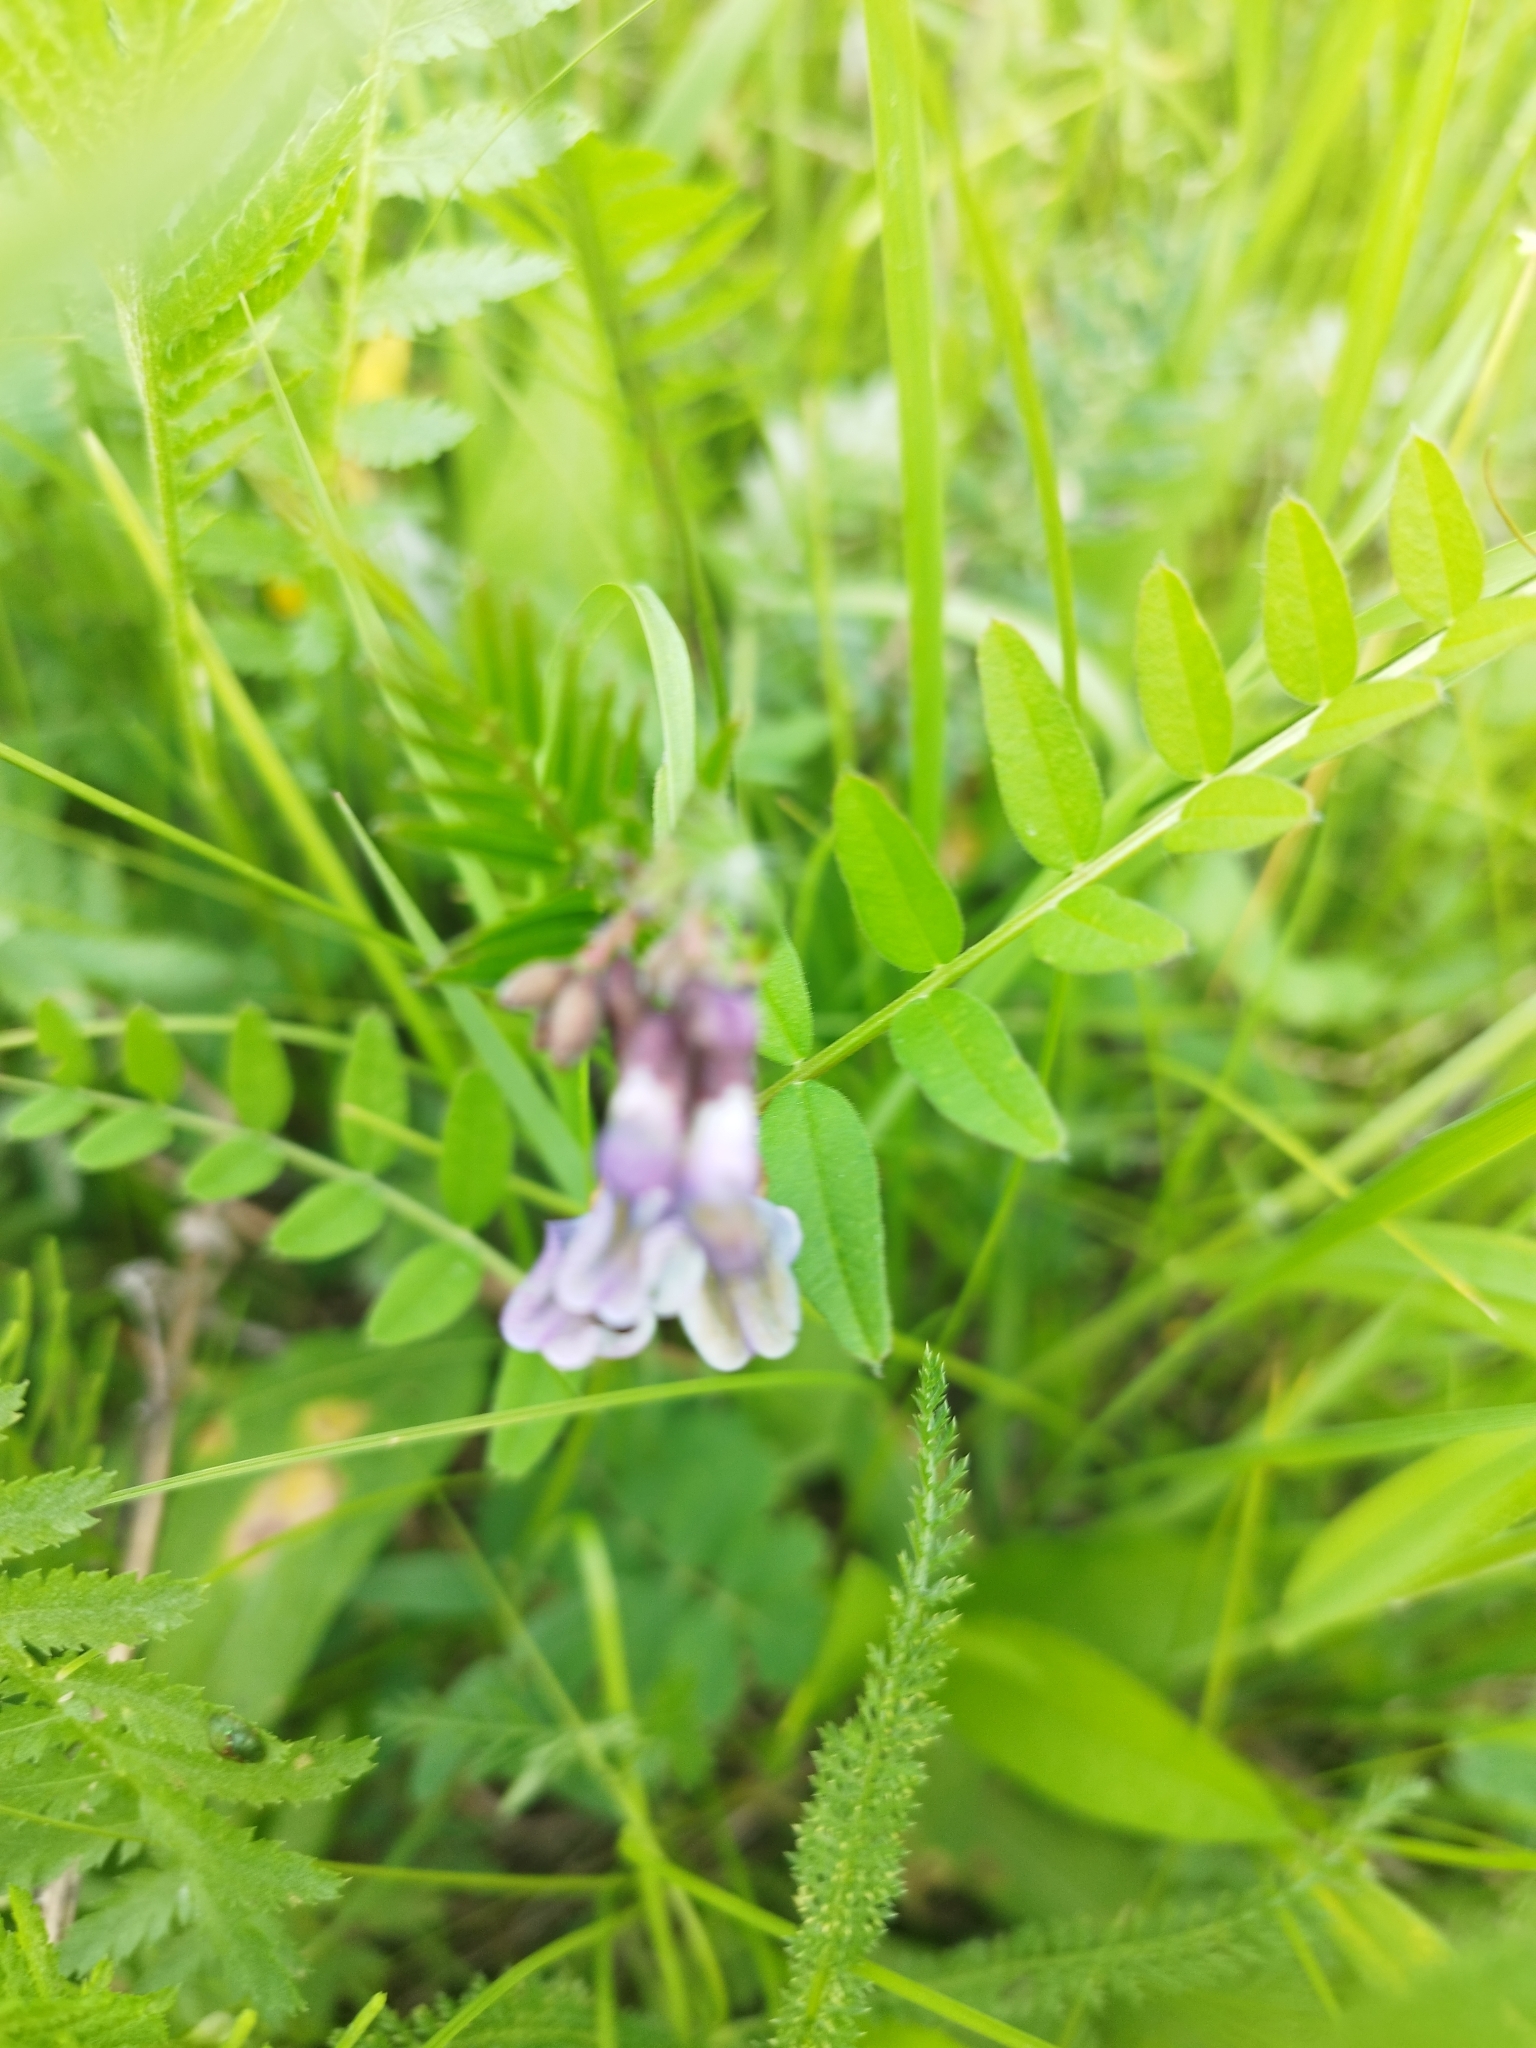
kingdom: Plantae
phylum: Tracheophyta
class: Magnoliopsida
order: Fabales
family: Fabaceae
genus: Vicia
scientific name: Vicia sepium
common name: Bush vetch
